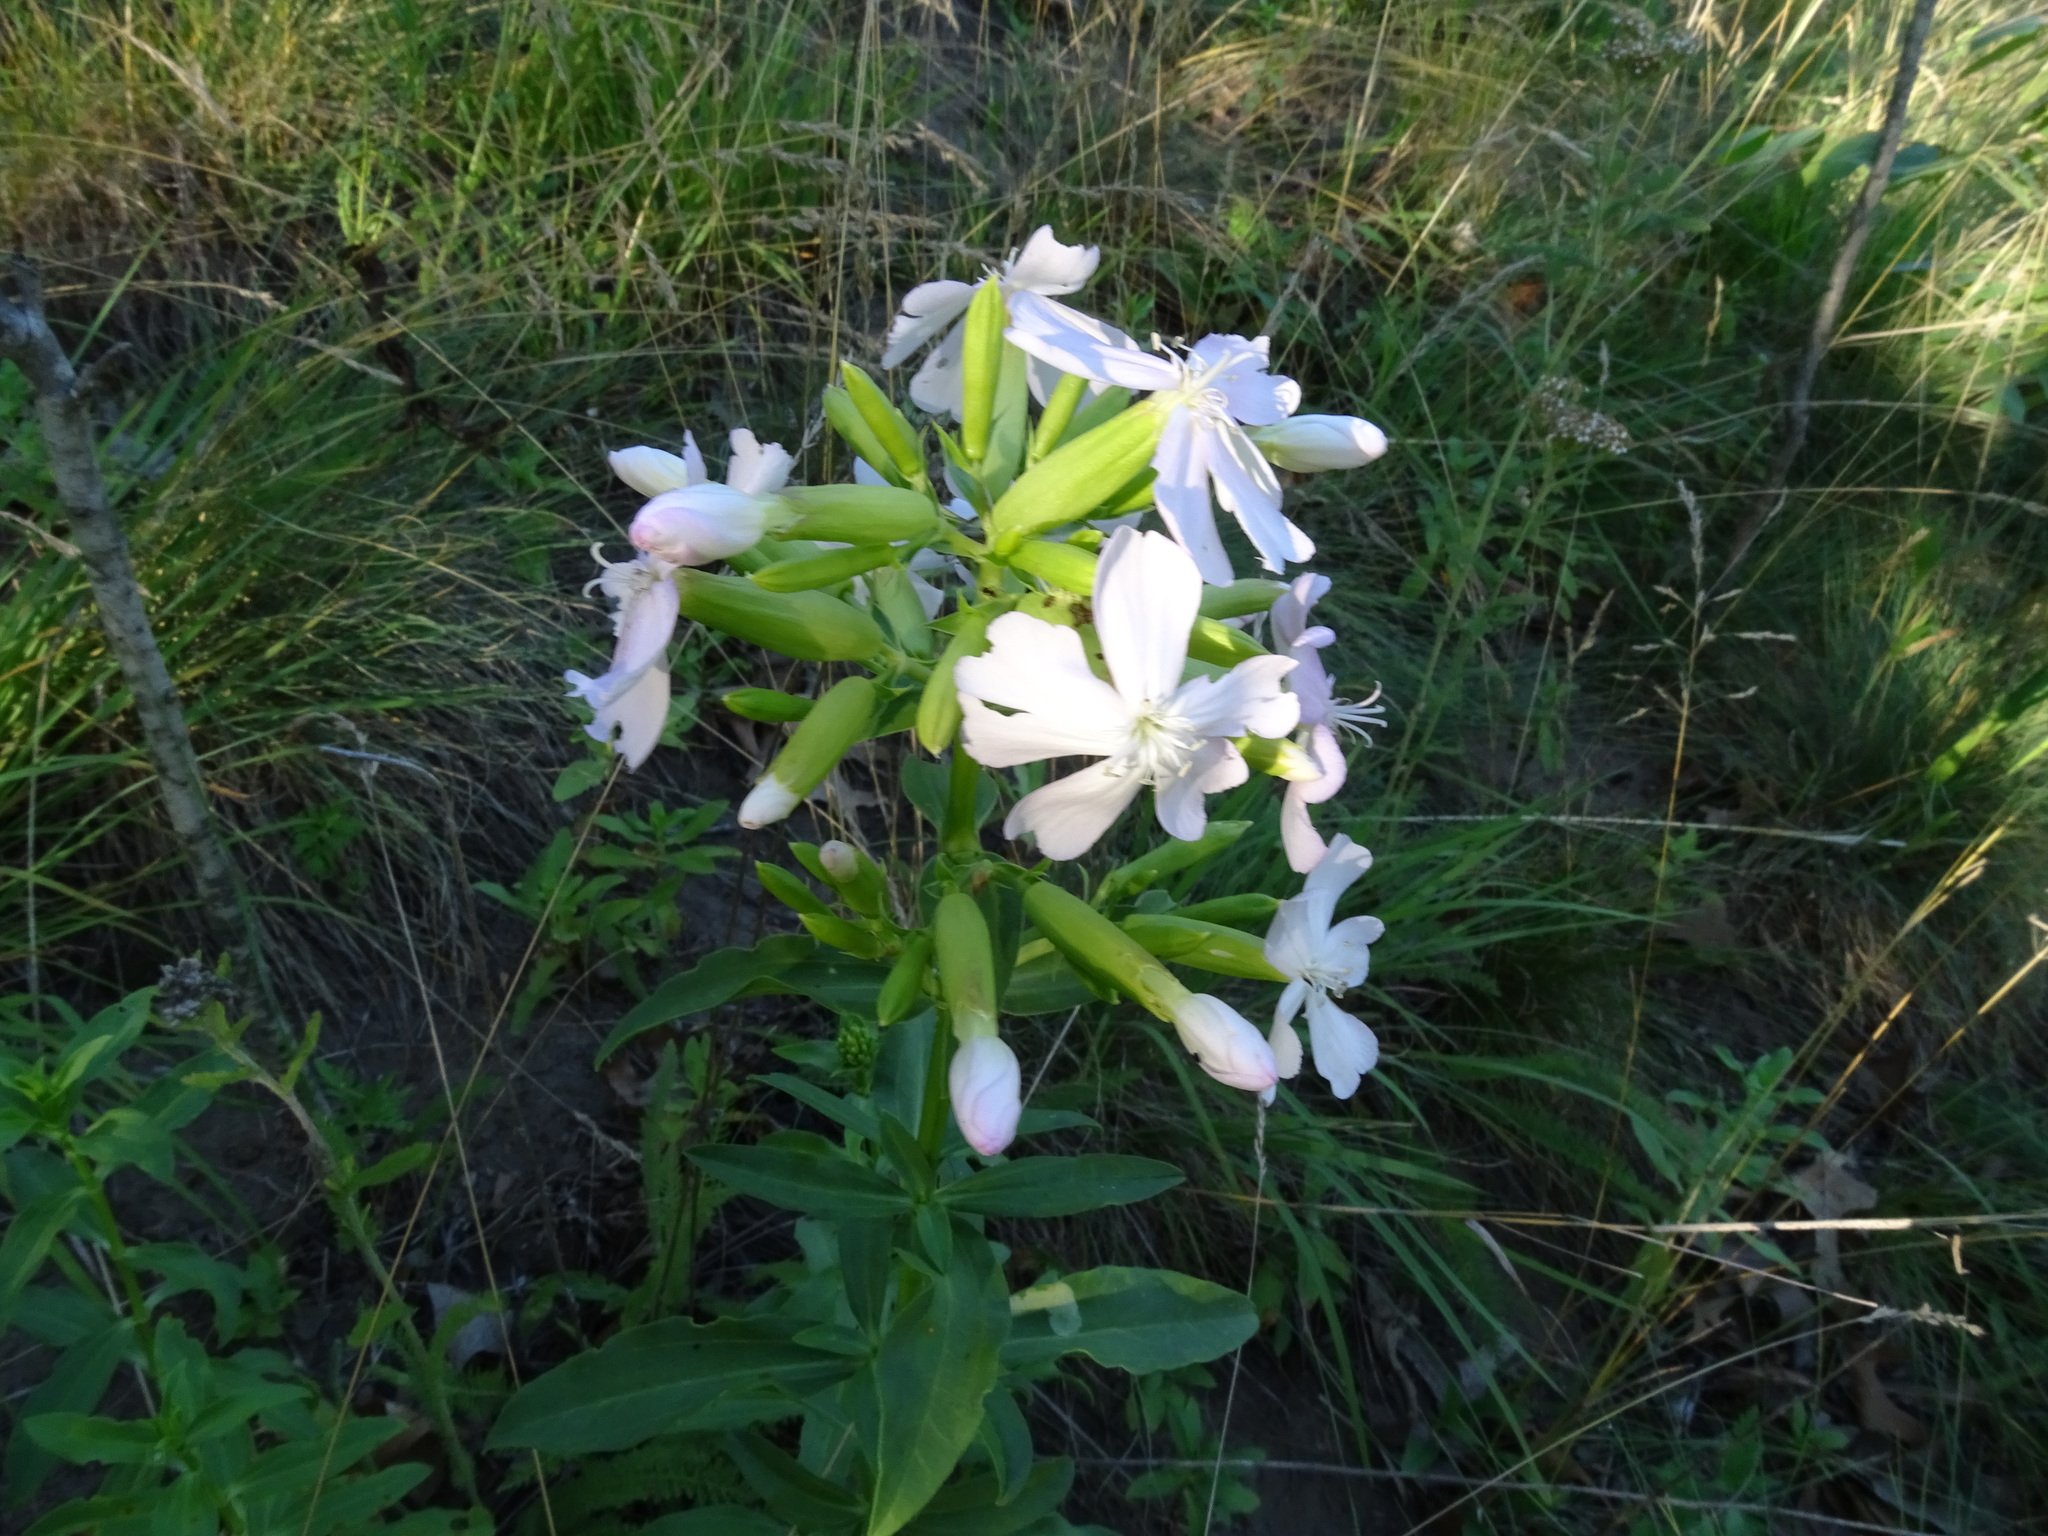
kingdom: Plantae
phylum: Tracheophyta
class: Magnoliopsida
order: Caryophyllales
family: Caryophyllaceae
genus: Saponaria
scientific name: Saponaria officinalis
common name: Soapwort
